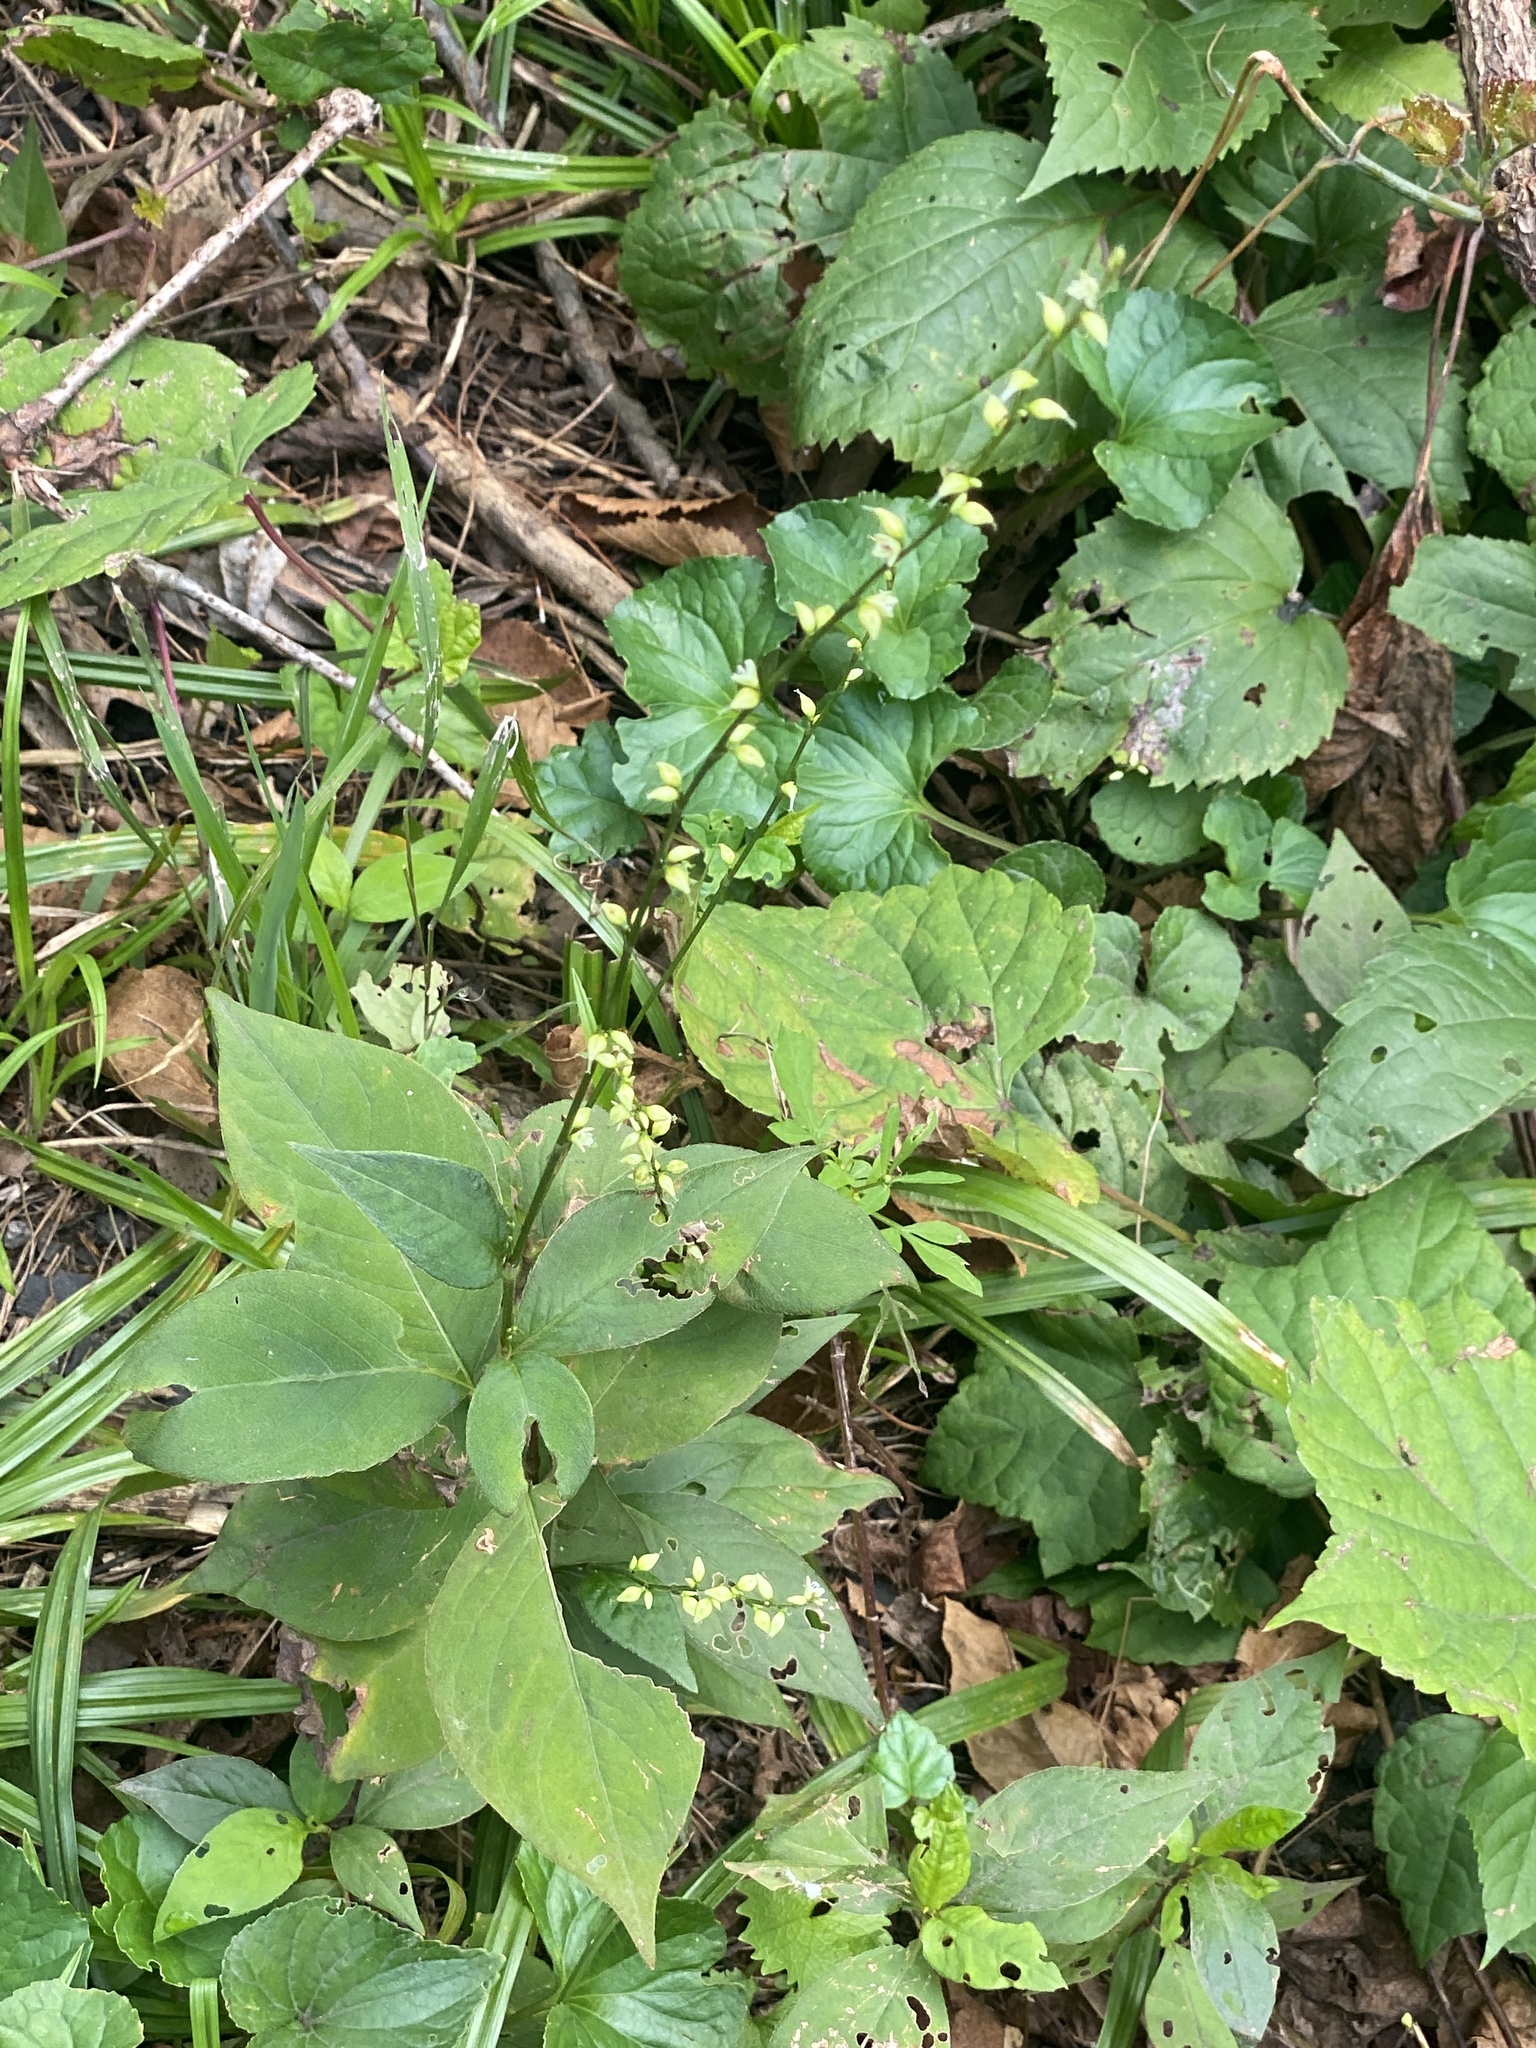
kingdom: Plantae
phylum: Tracheophyta
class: Magnoliopsida
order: Caryophyllales
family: Polygonaceae
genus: Persicaria
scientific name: Persicaria virginiana
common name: Jumpseed
